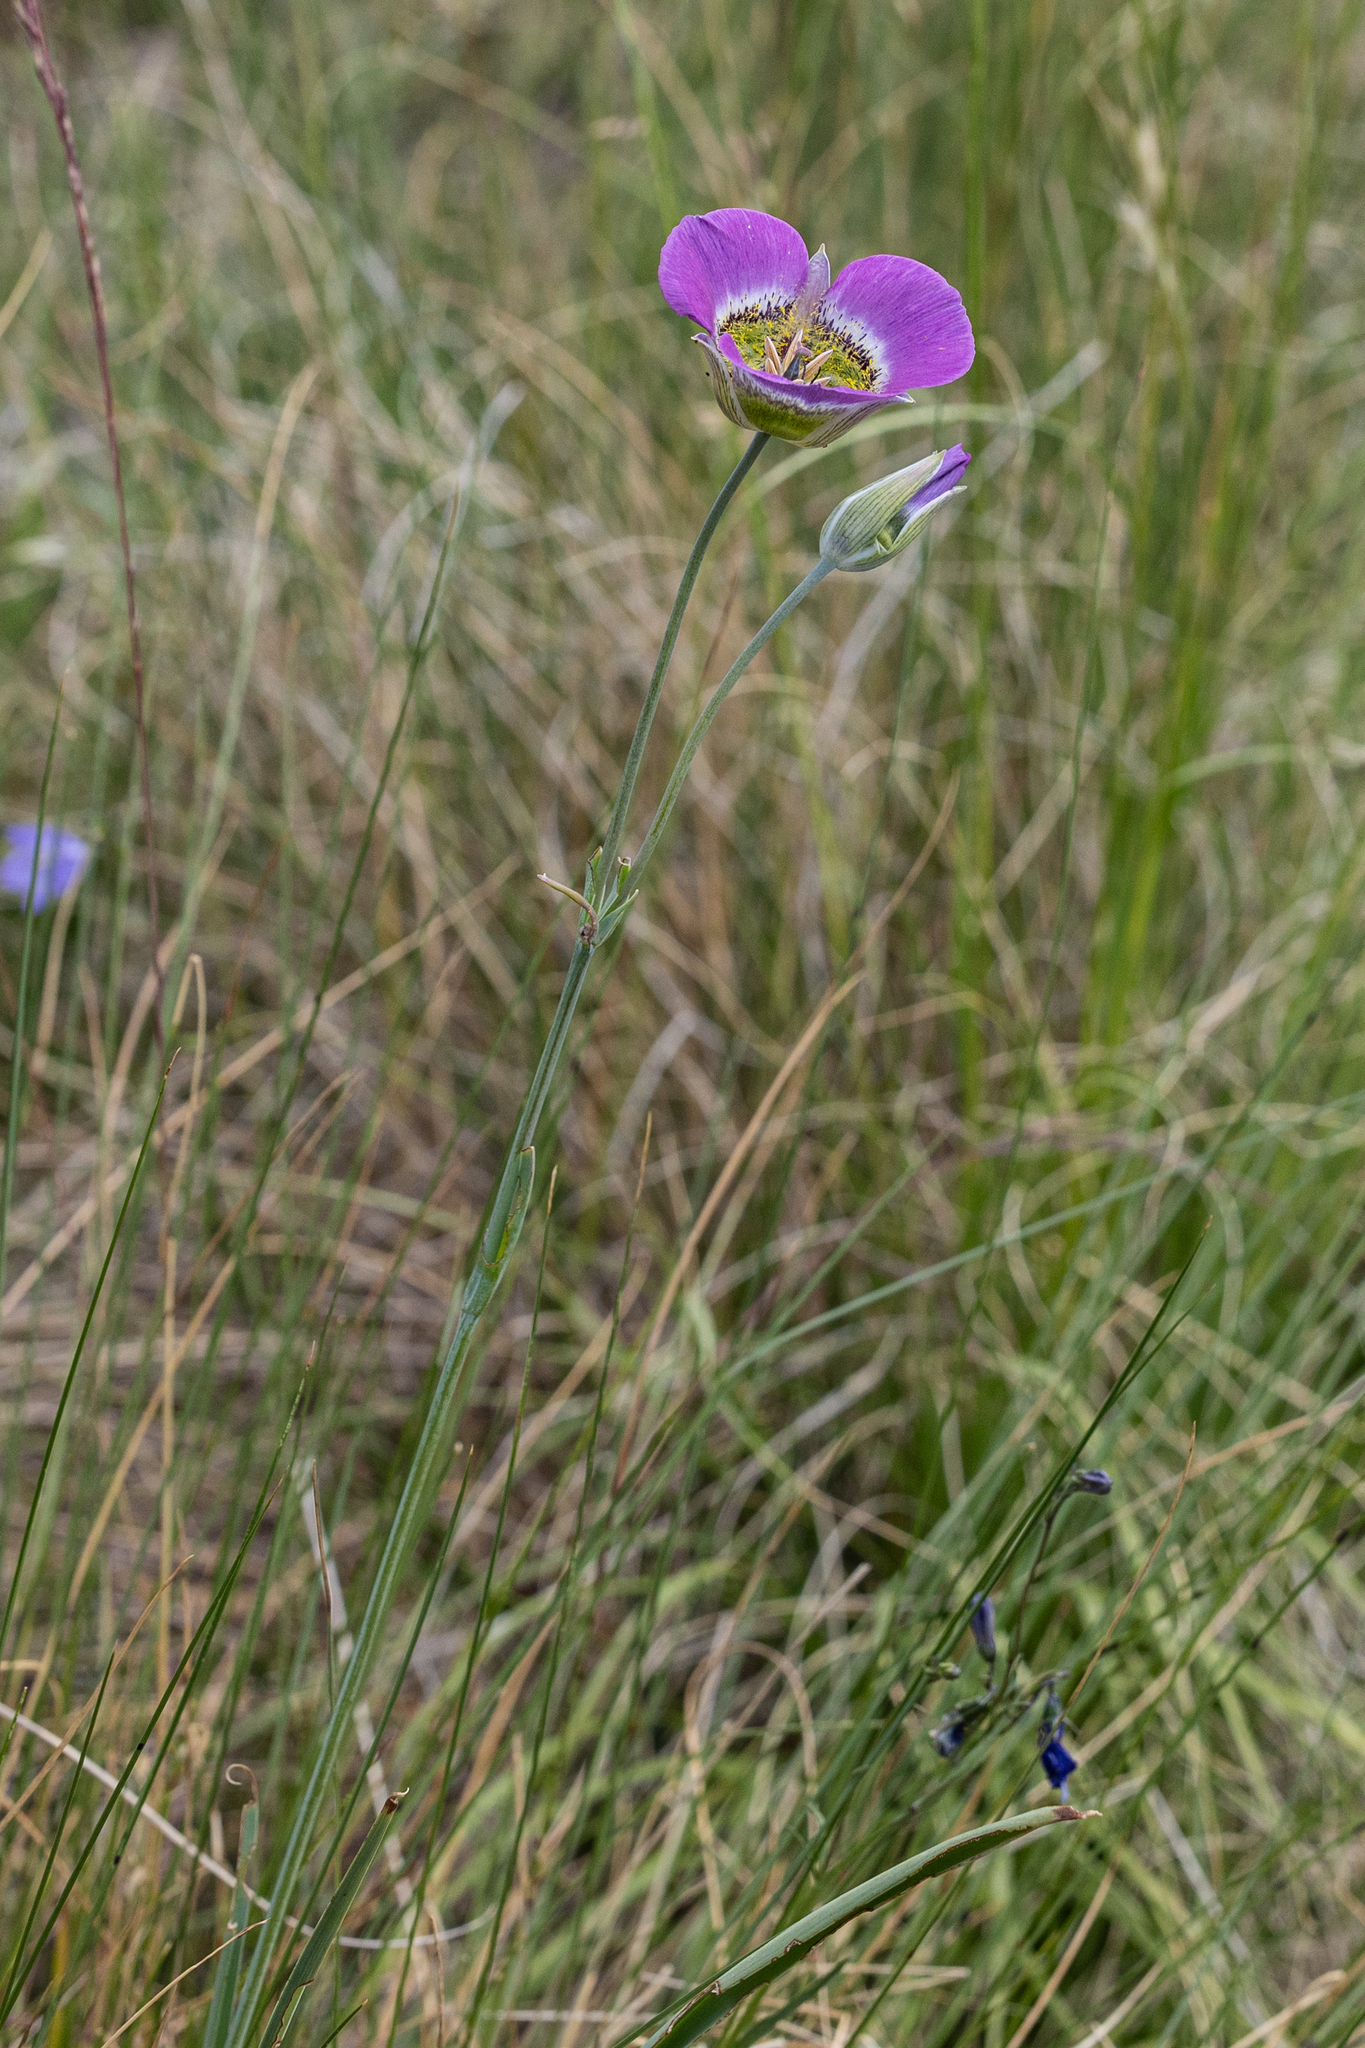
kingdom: Plantae
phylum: Tracheophyta
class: Liliopsida
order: Liliales
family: Liliaceae
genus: Calochortus
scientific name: Calochortus gunnisonii
